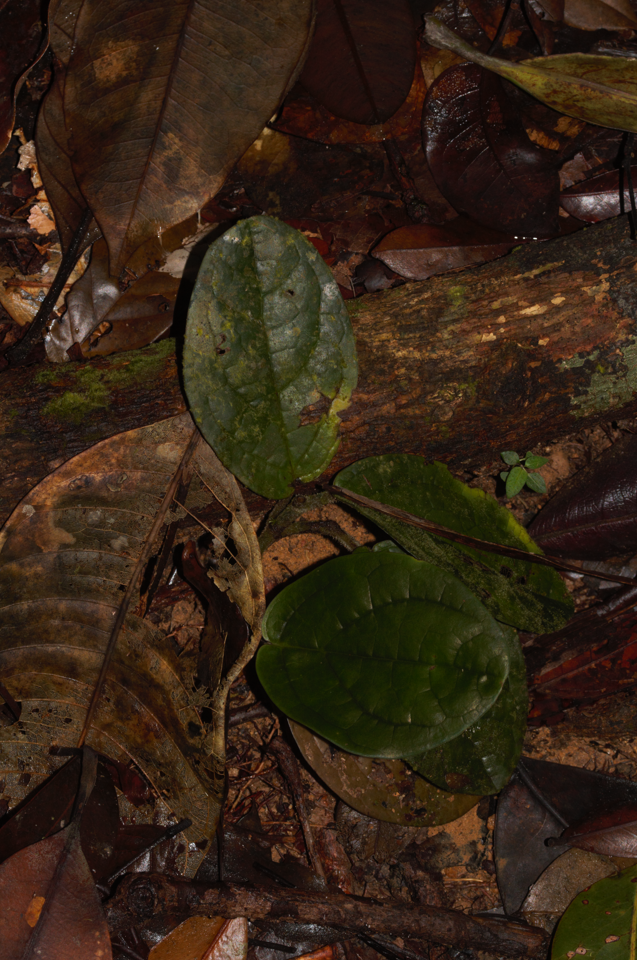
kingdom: Plantae
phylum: Tracheophyta
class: Magnoliopsida
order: Piperales
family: Piperaceae
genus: Piper
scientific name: Piper humistratum
